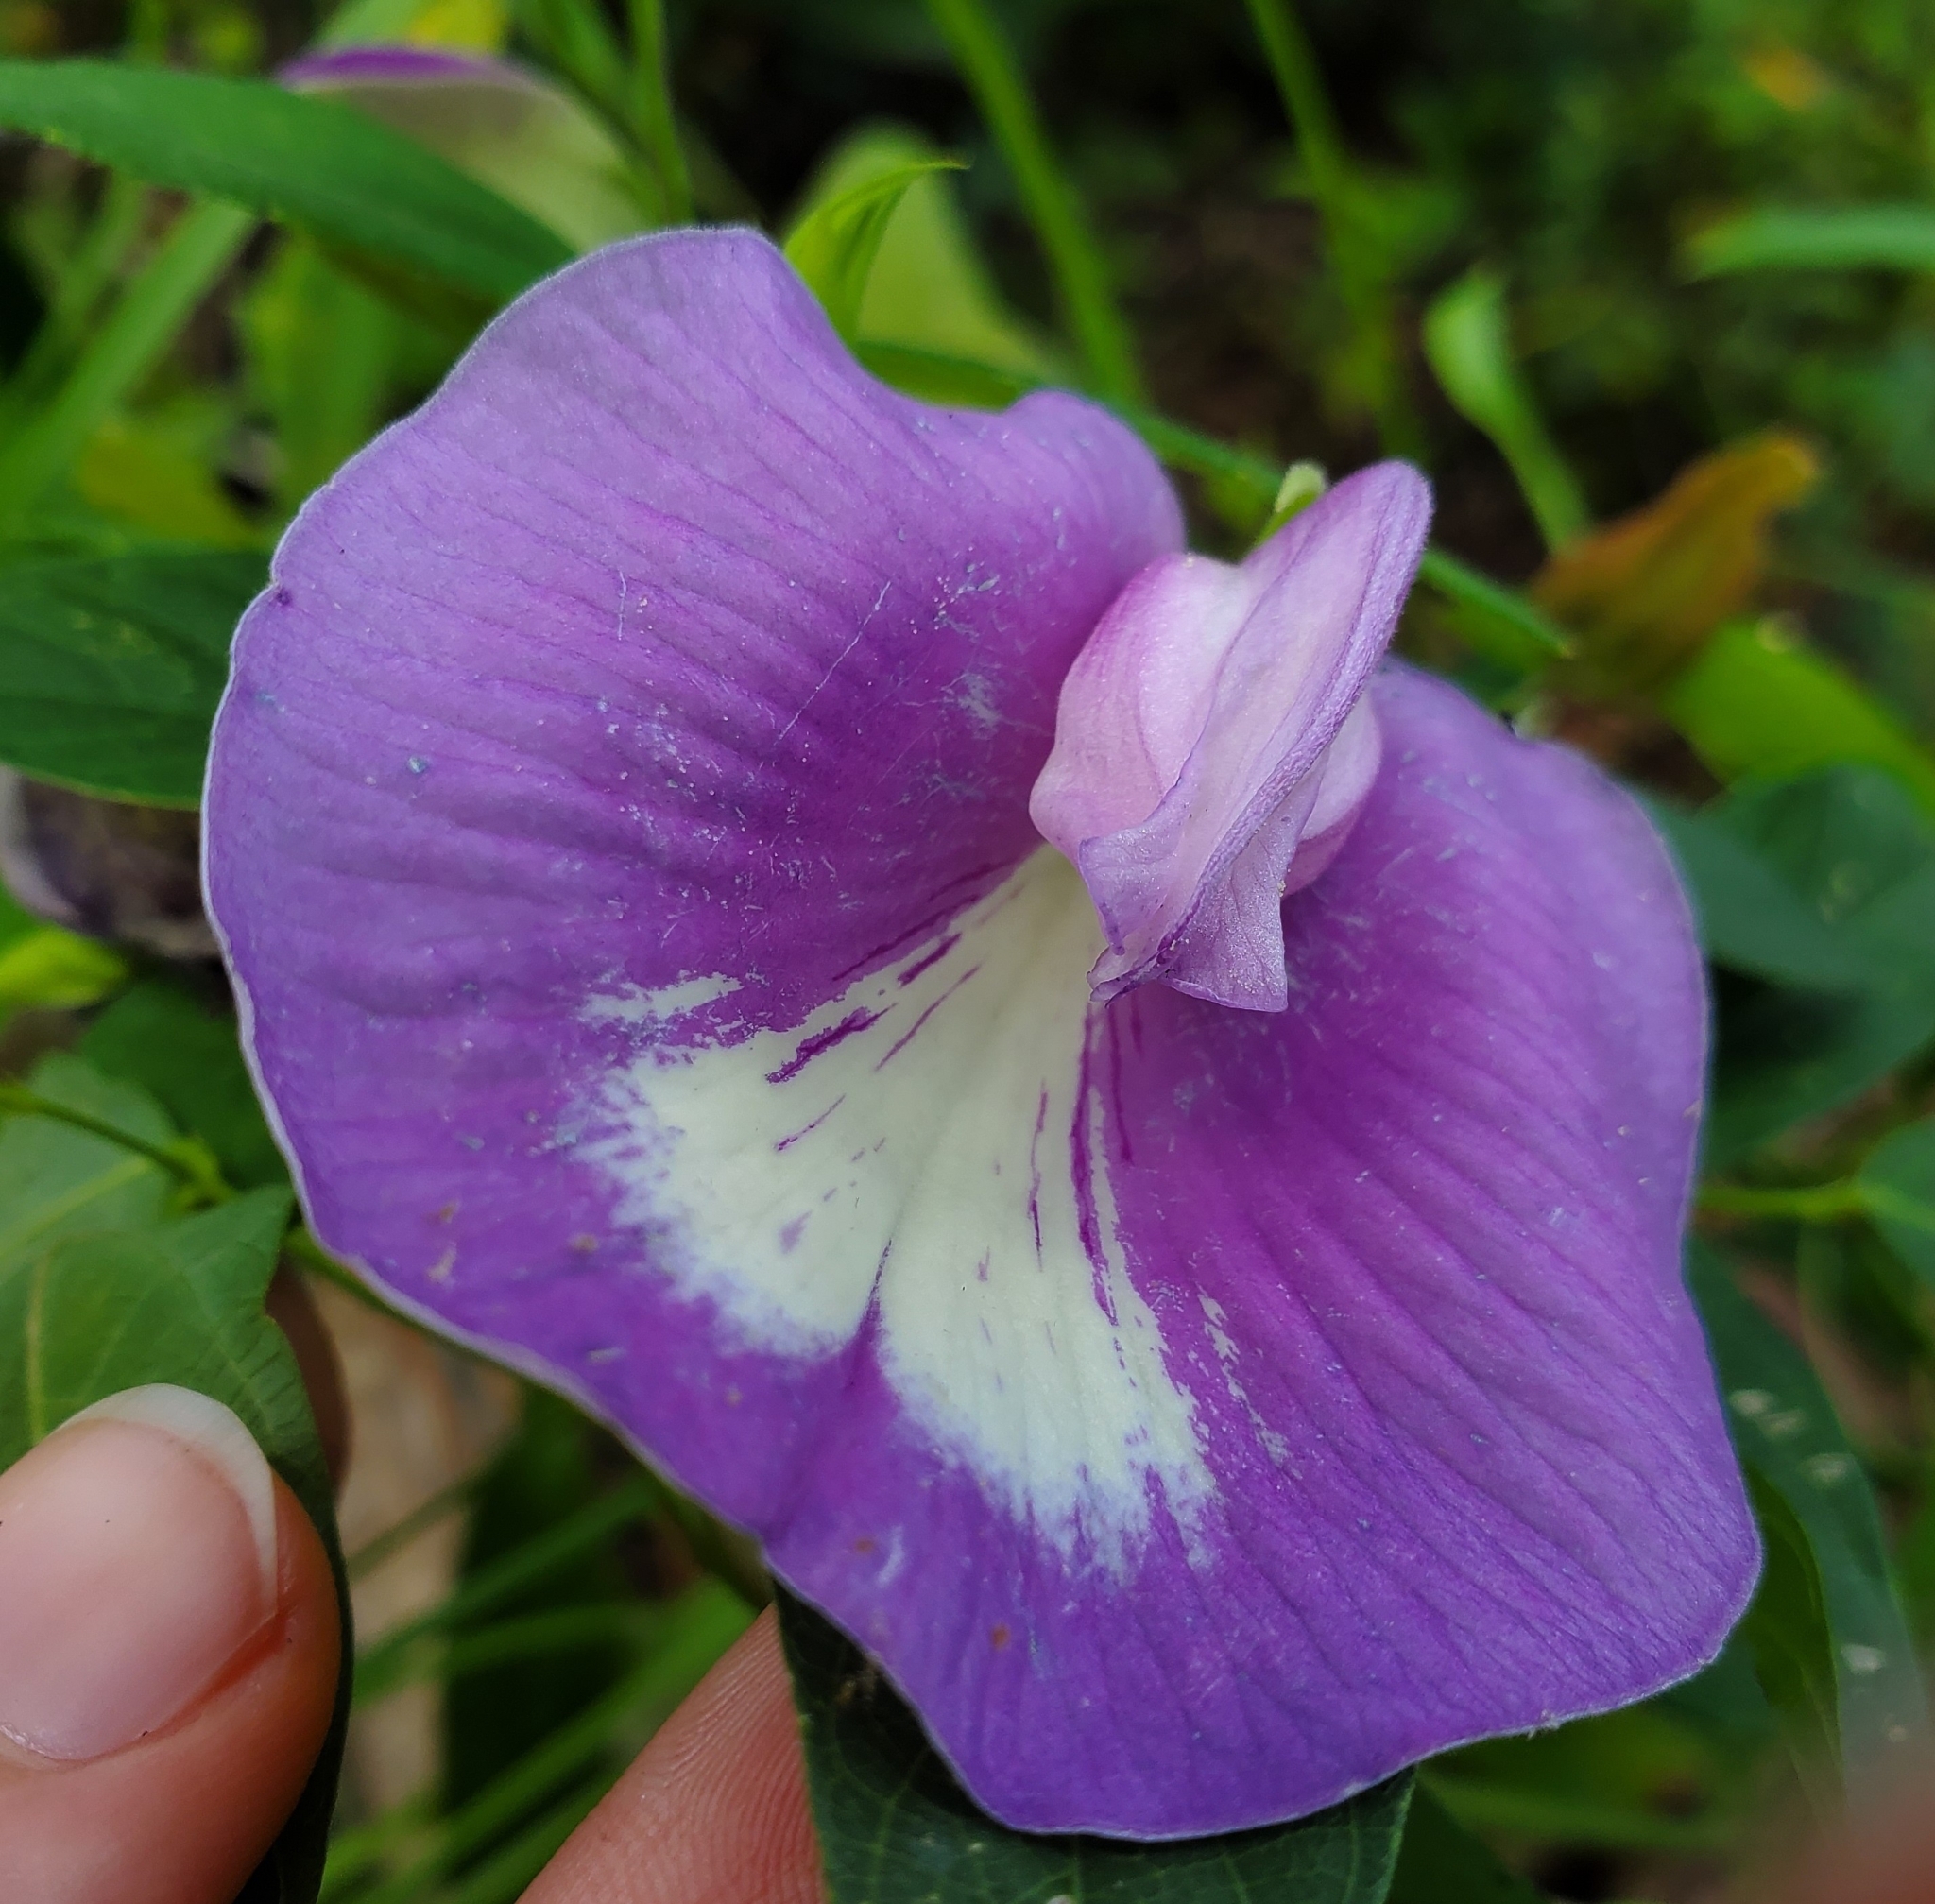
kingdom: Plantae
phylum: Tracheophyta
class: Magnoliopsida
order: Fabales
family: Fabaceae
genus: Centrosema
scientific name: Centrosema virginianum
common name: Butterfly-pea
